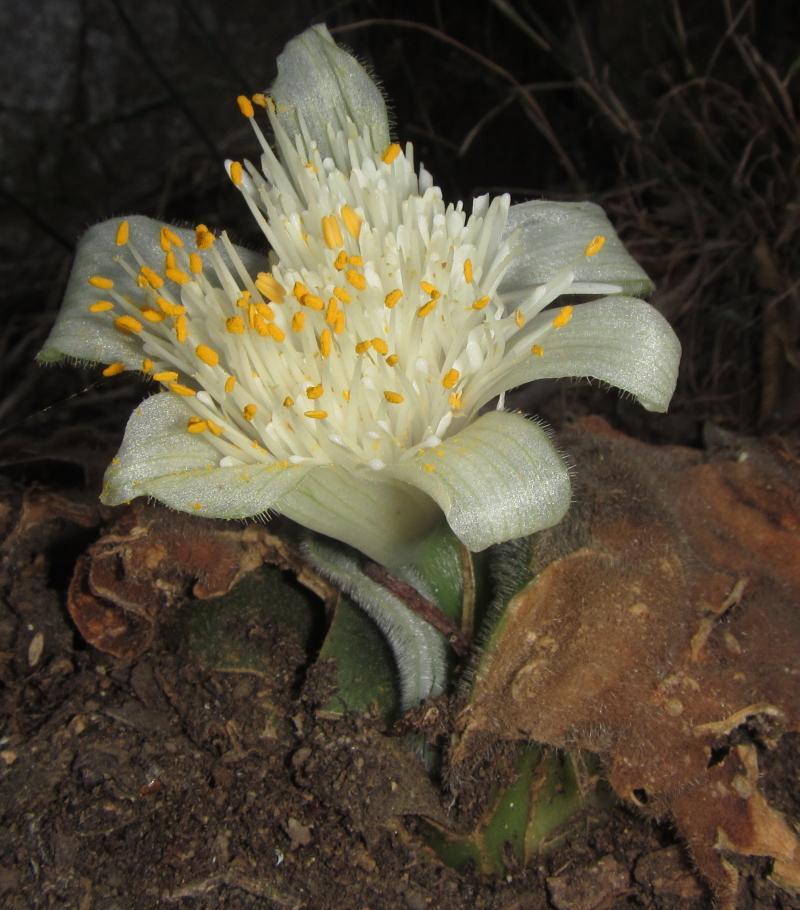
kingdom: Plantae
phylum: Tracheophyta
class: Liliopsida
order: Asparagales
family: Amaryllidaceae
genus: Haemanthus
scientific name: Haemanthus deformis
